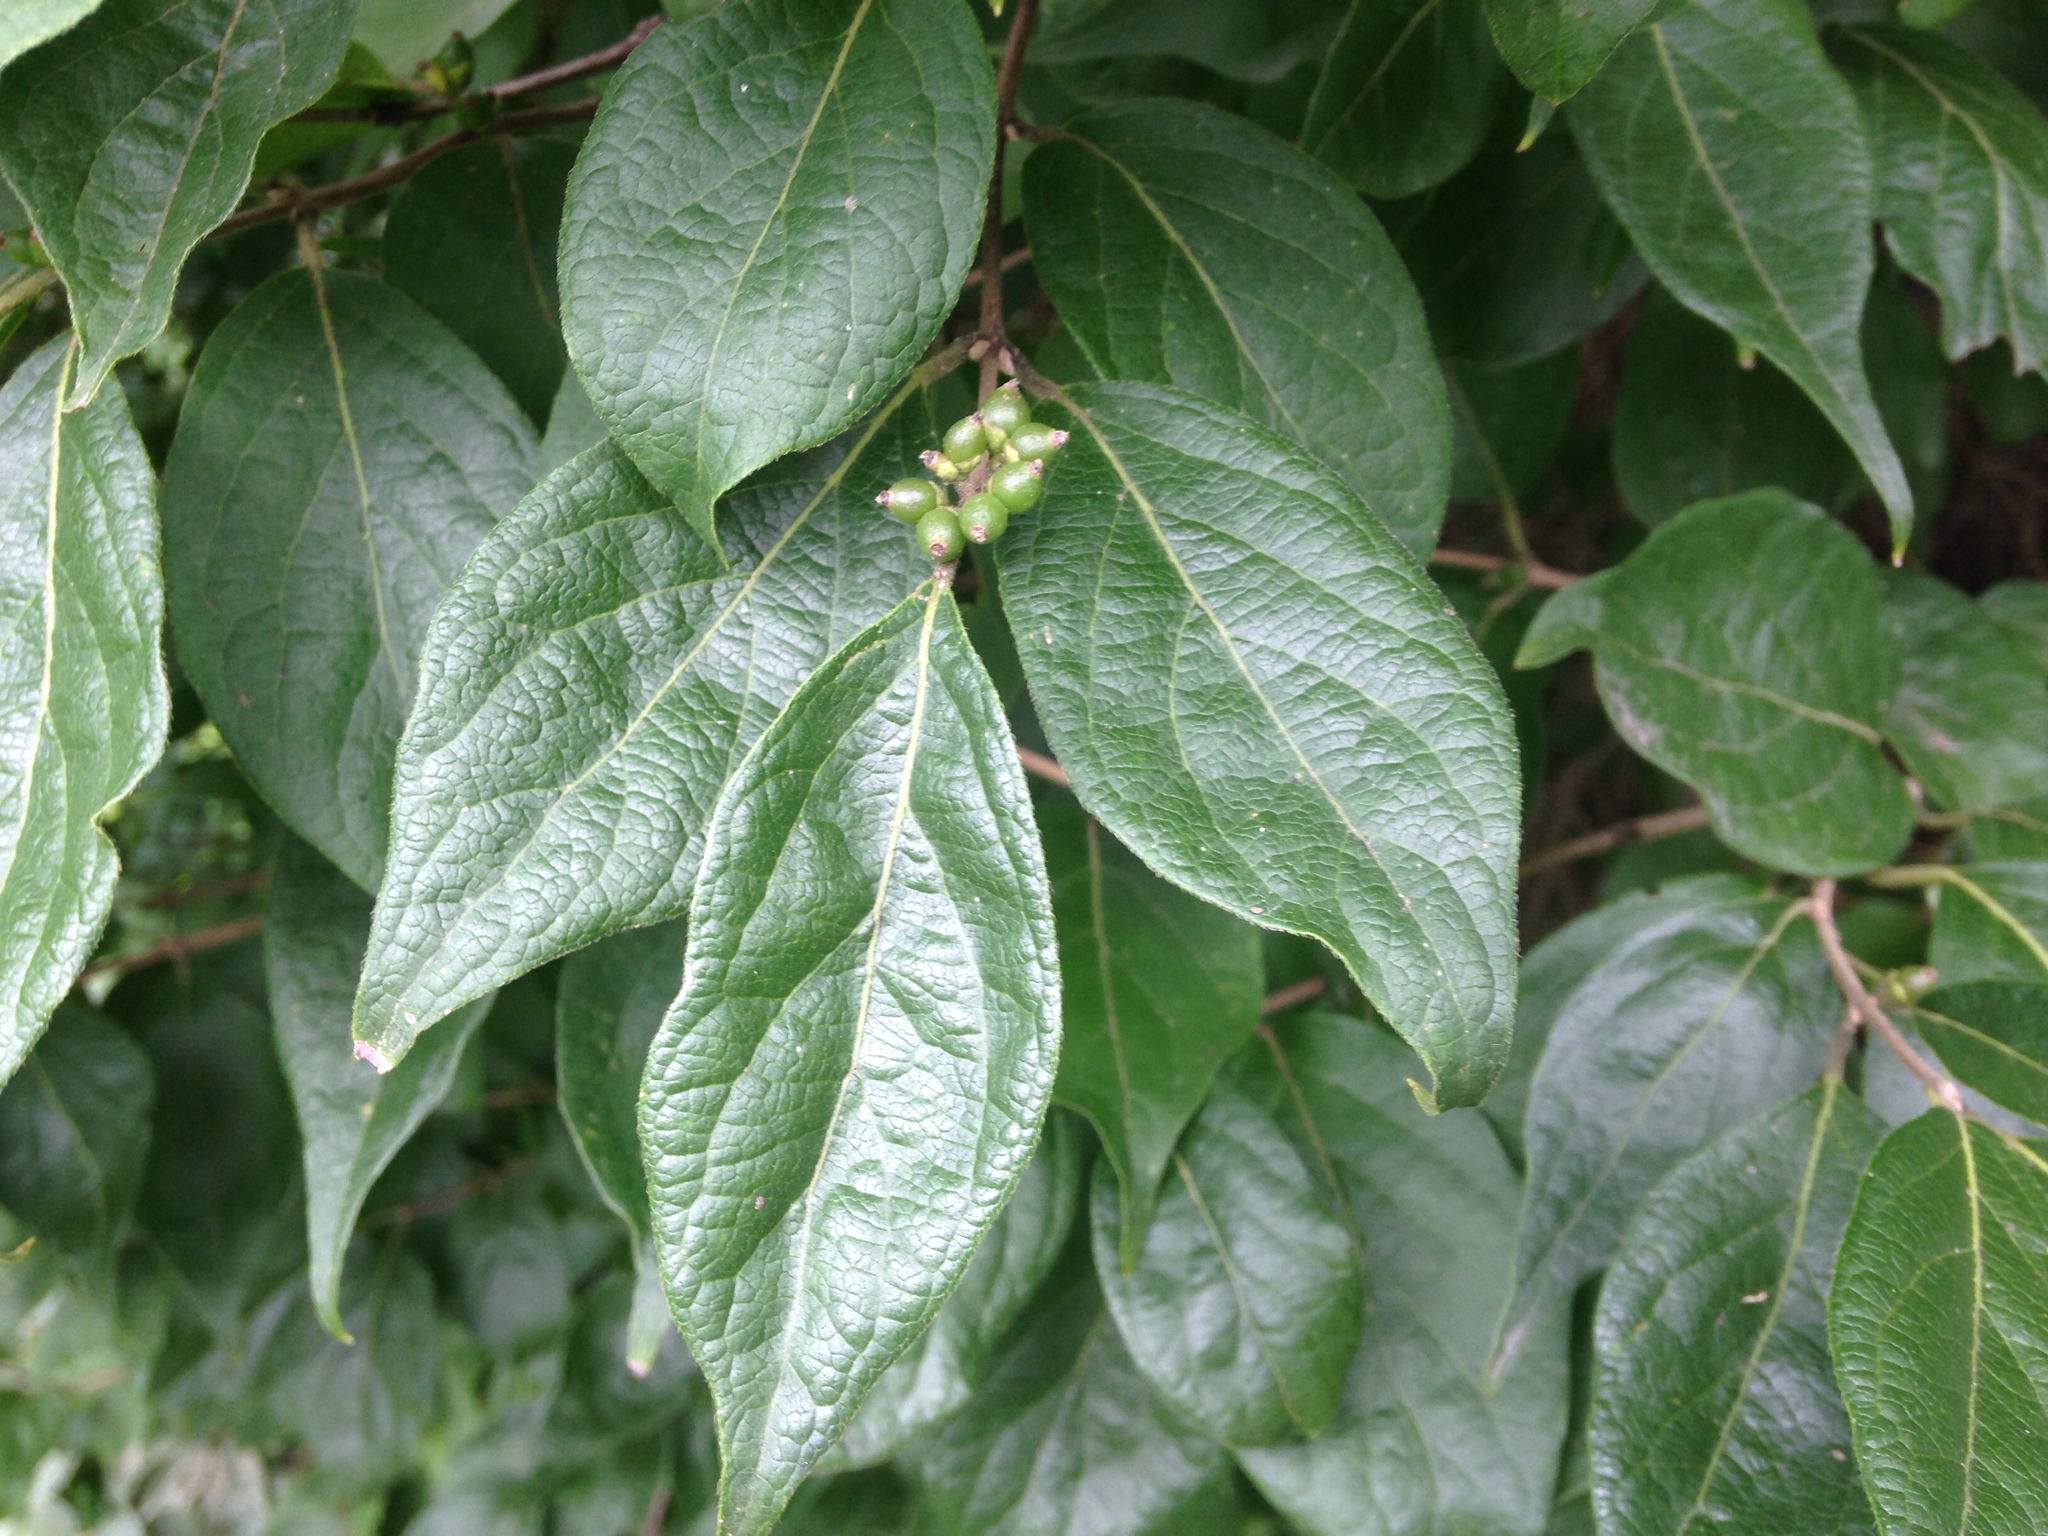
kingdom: Plantae
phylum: Tracheophyta
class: Magnoliopsida
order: Dipsacales
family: Caprifoliaceae
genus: Lonicera
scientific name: Lonicera maackii
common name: Amur honeysuckle
